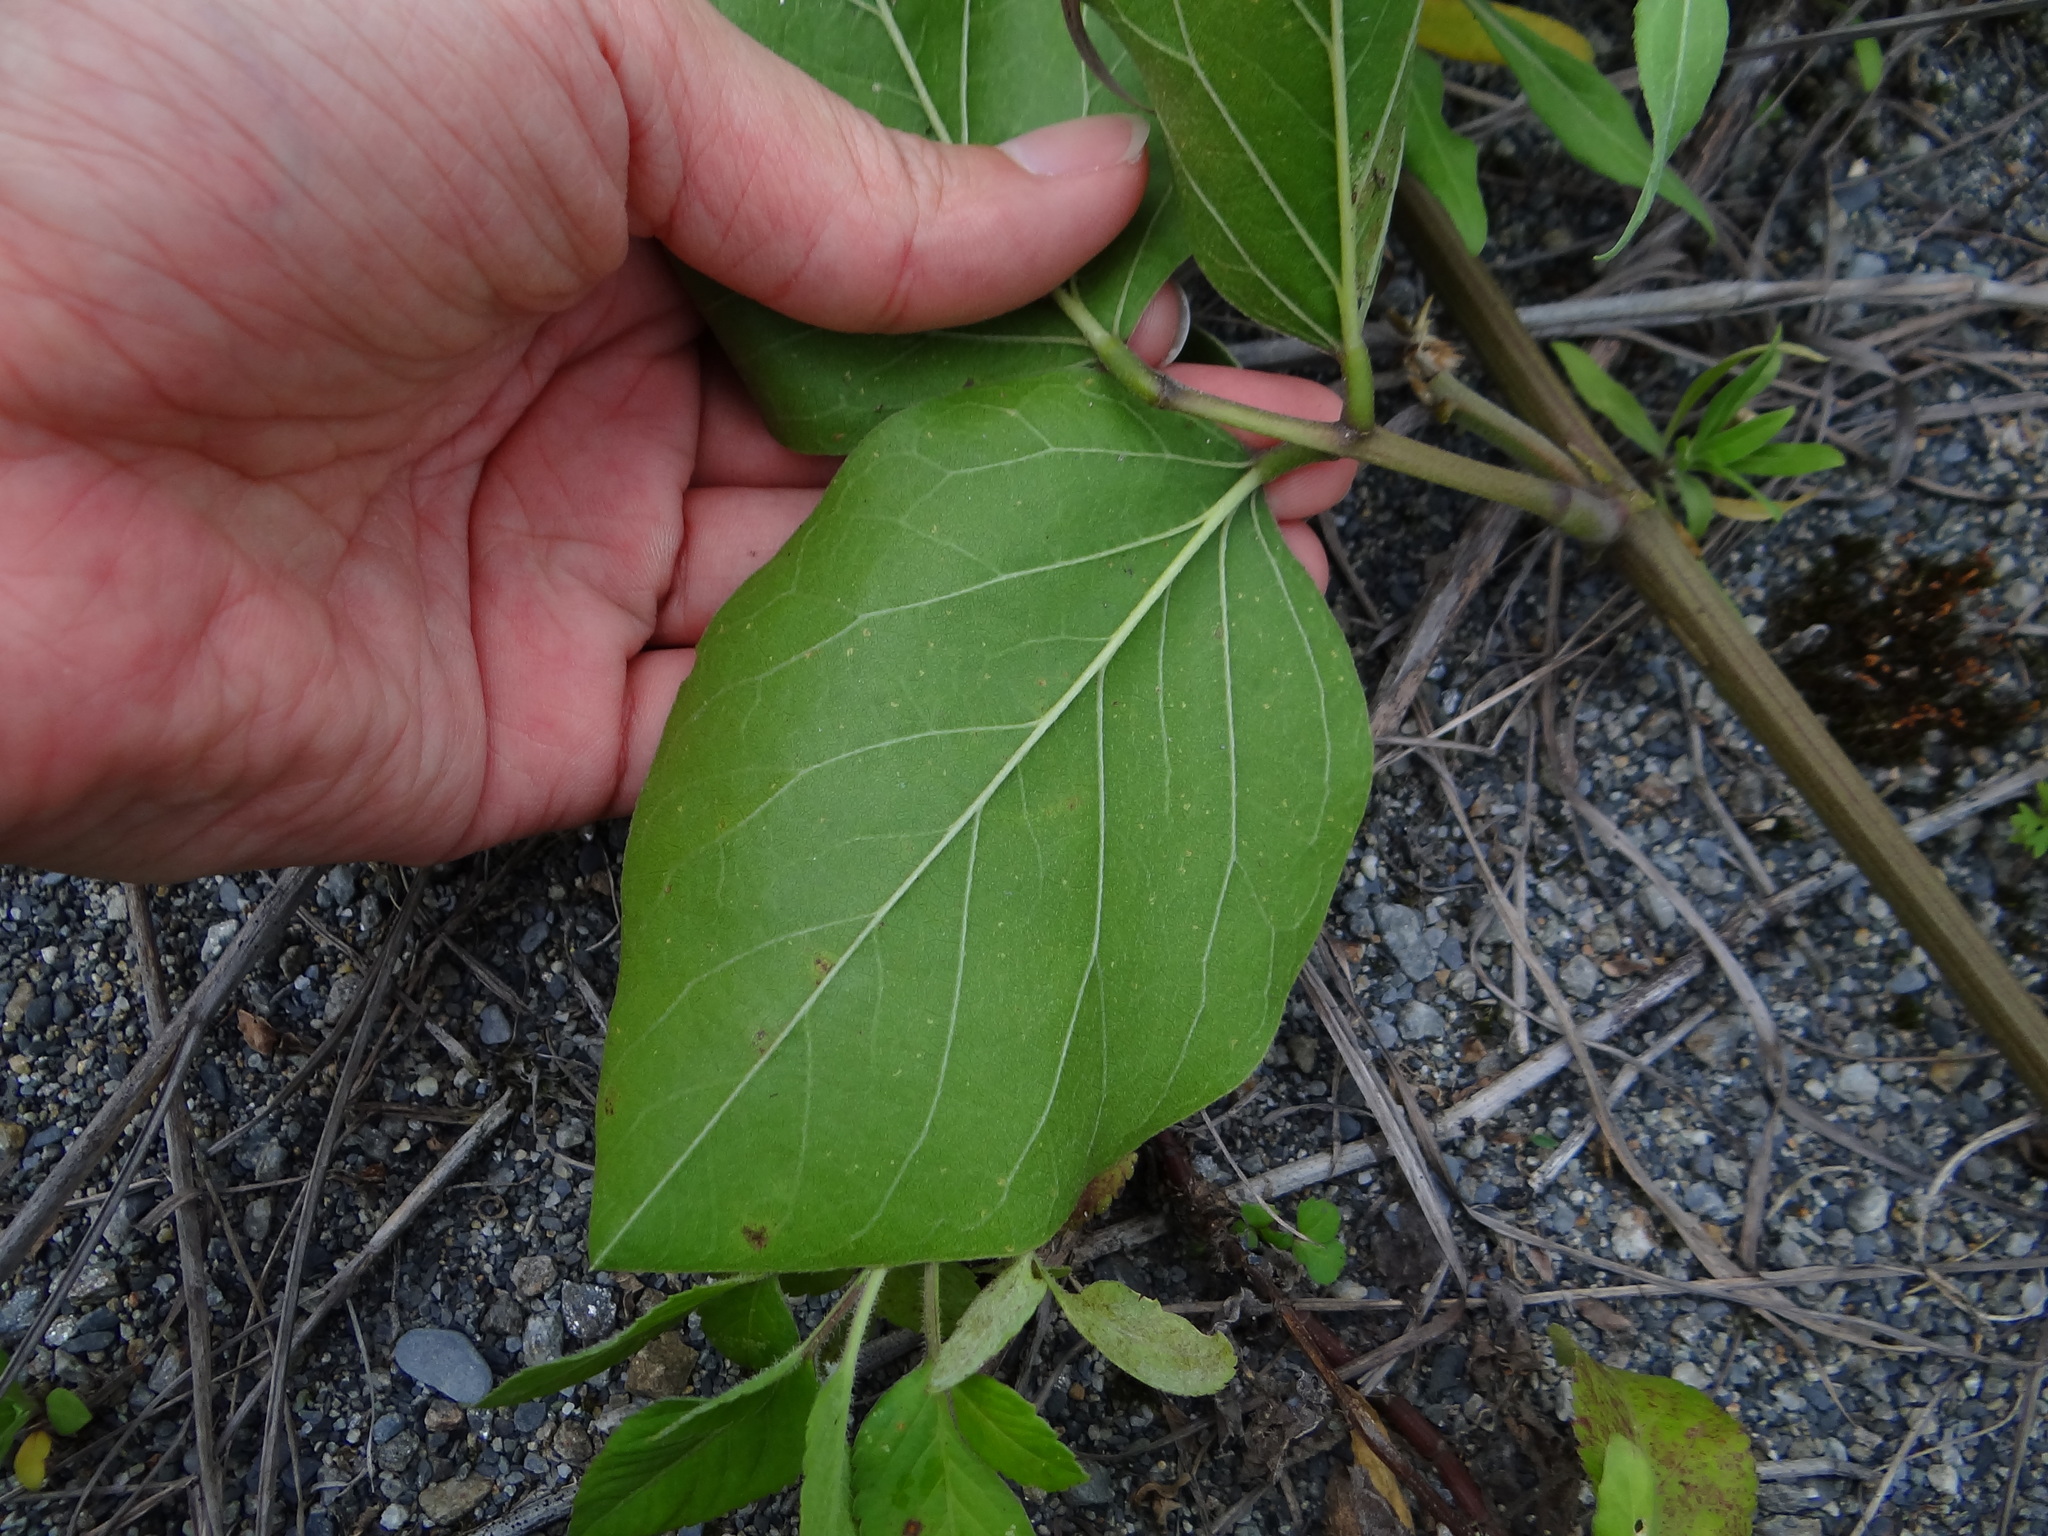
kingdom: Plantae
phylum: Tracheophyta
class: Magnoliopsida
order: Fabales
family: Fabaceae
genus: Canavalia
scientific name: Canavalia rosea
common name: Beach-bean
